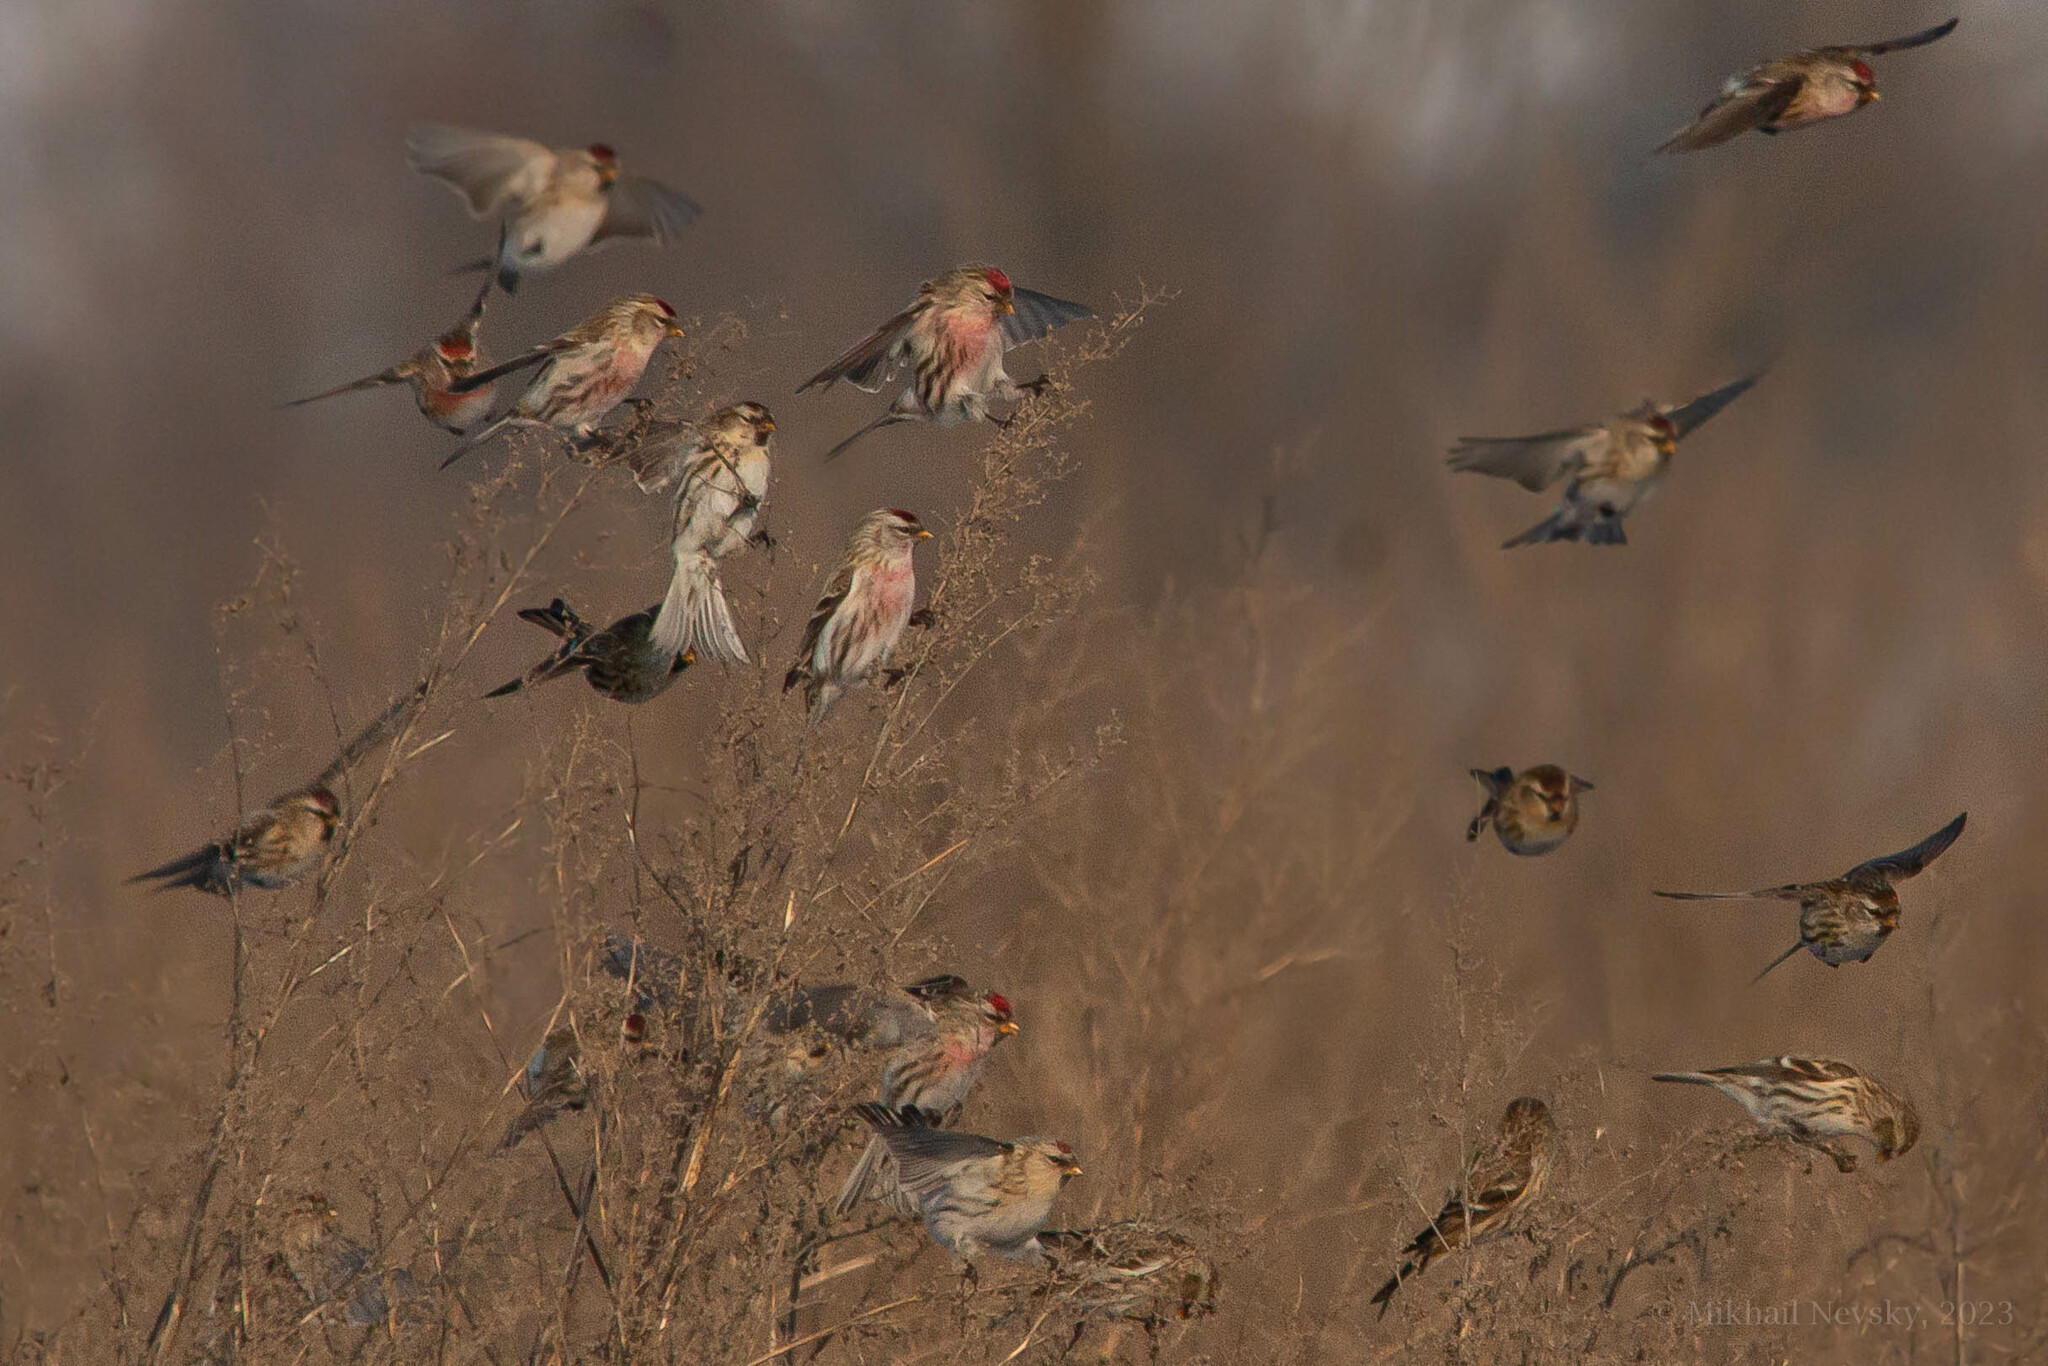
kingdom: Animalia
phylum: Chordata
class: Aves
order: Passeriformes
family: Fringillidae
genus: Acanthis
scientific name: Acanthis flammea
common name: Common redpoll
